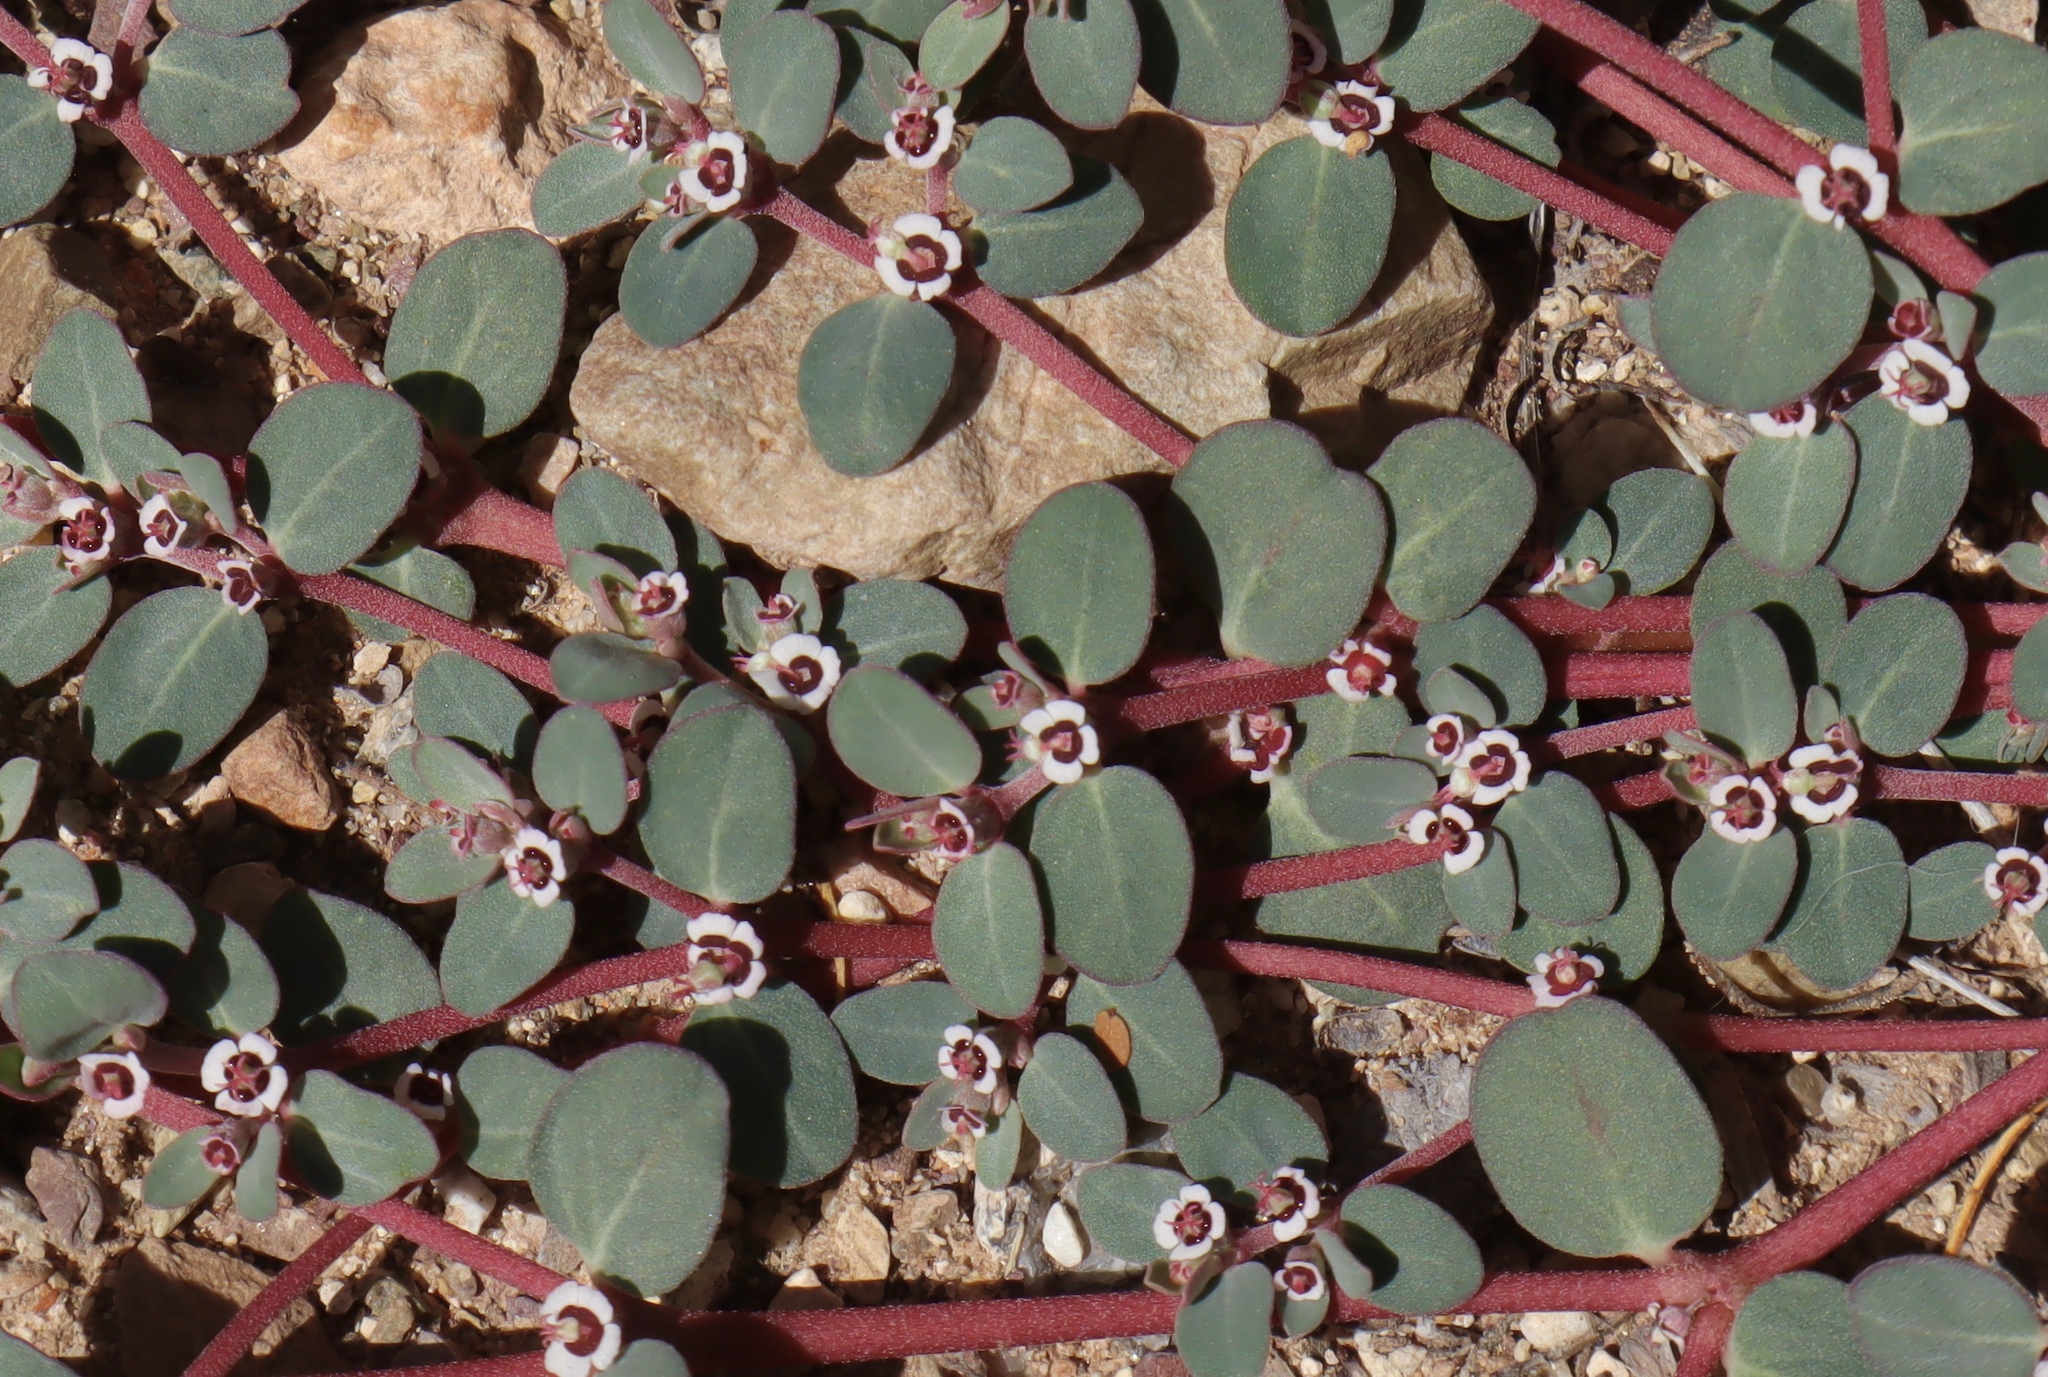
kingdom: Plantae
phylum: Tracheophyta
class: Magnoliopsida
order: Malpighiales
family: Euphorbiaceae
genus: Euphorbia
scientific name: Euphorbia pediculifera
